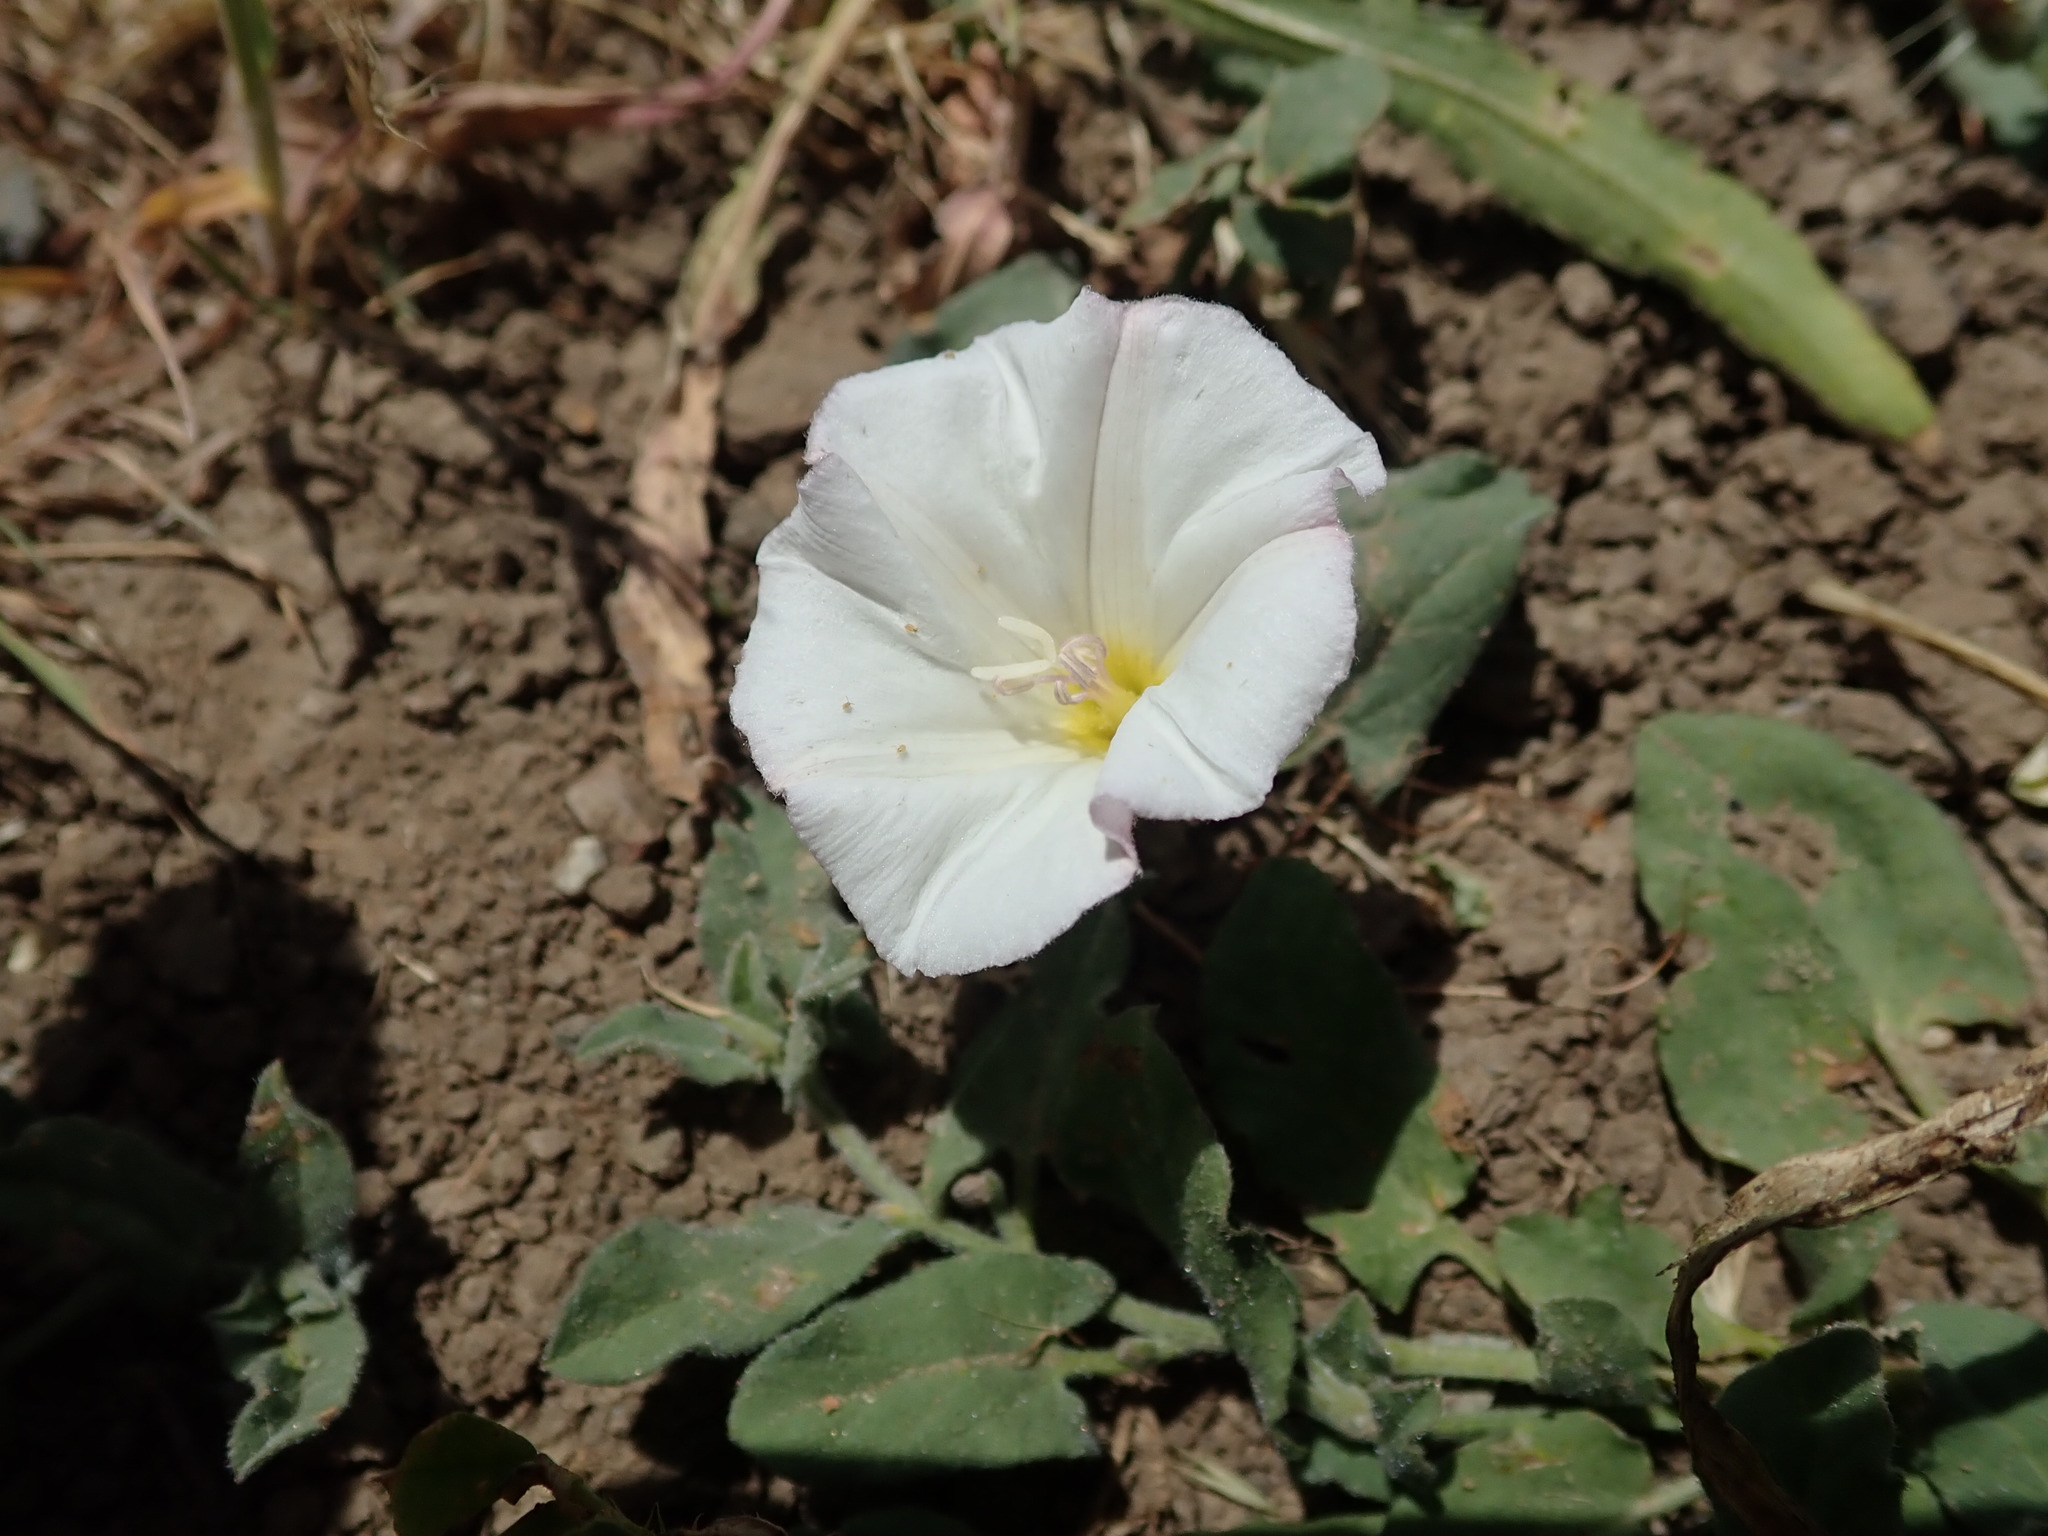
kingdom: Plantae
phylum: Tracheophyta
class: Magnoliopsida
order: Solanales
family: Convolvulaceae
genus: Convolvulus
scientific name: Convolvulus arvensis
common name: Field bindweed
